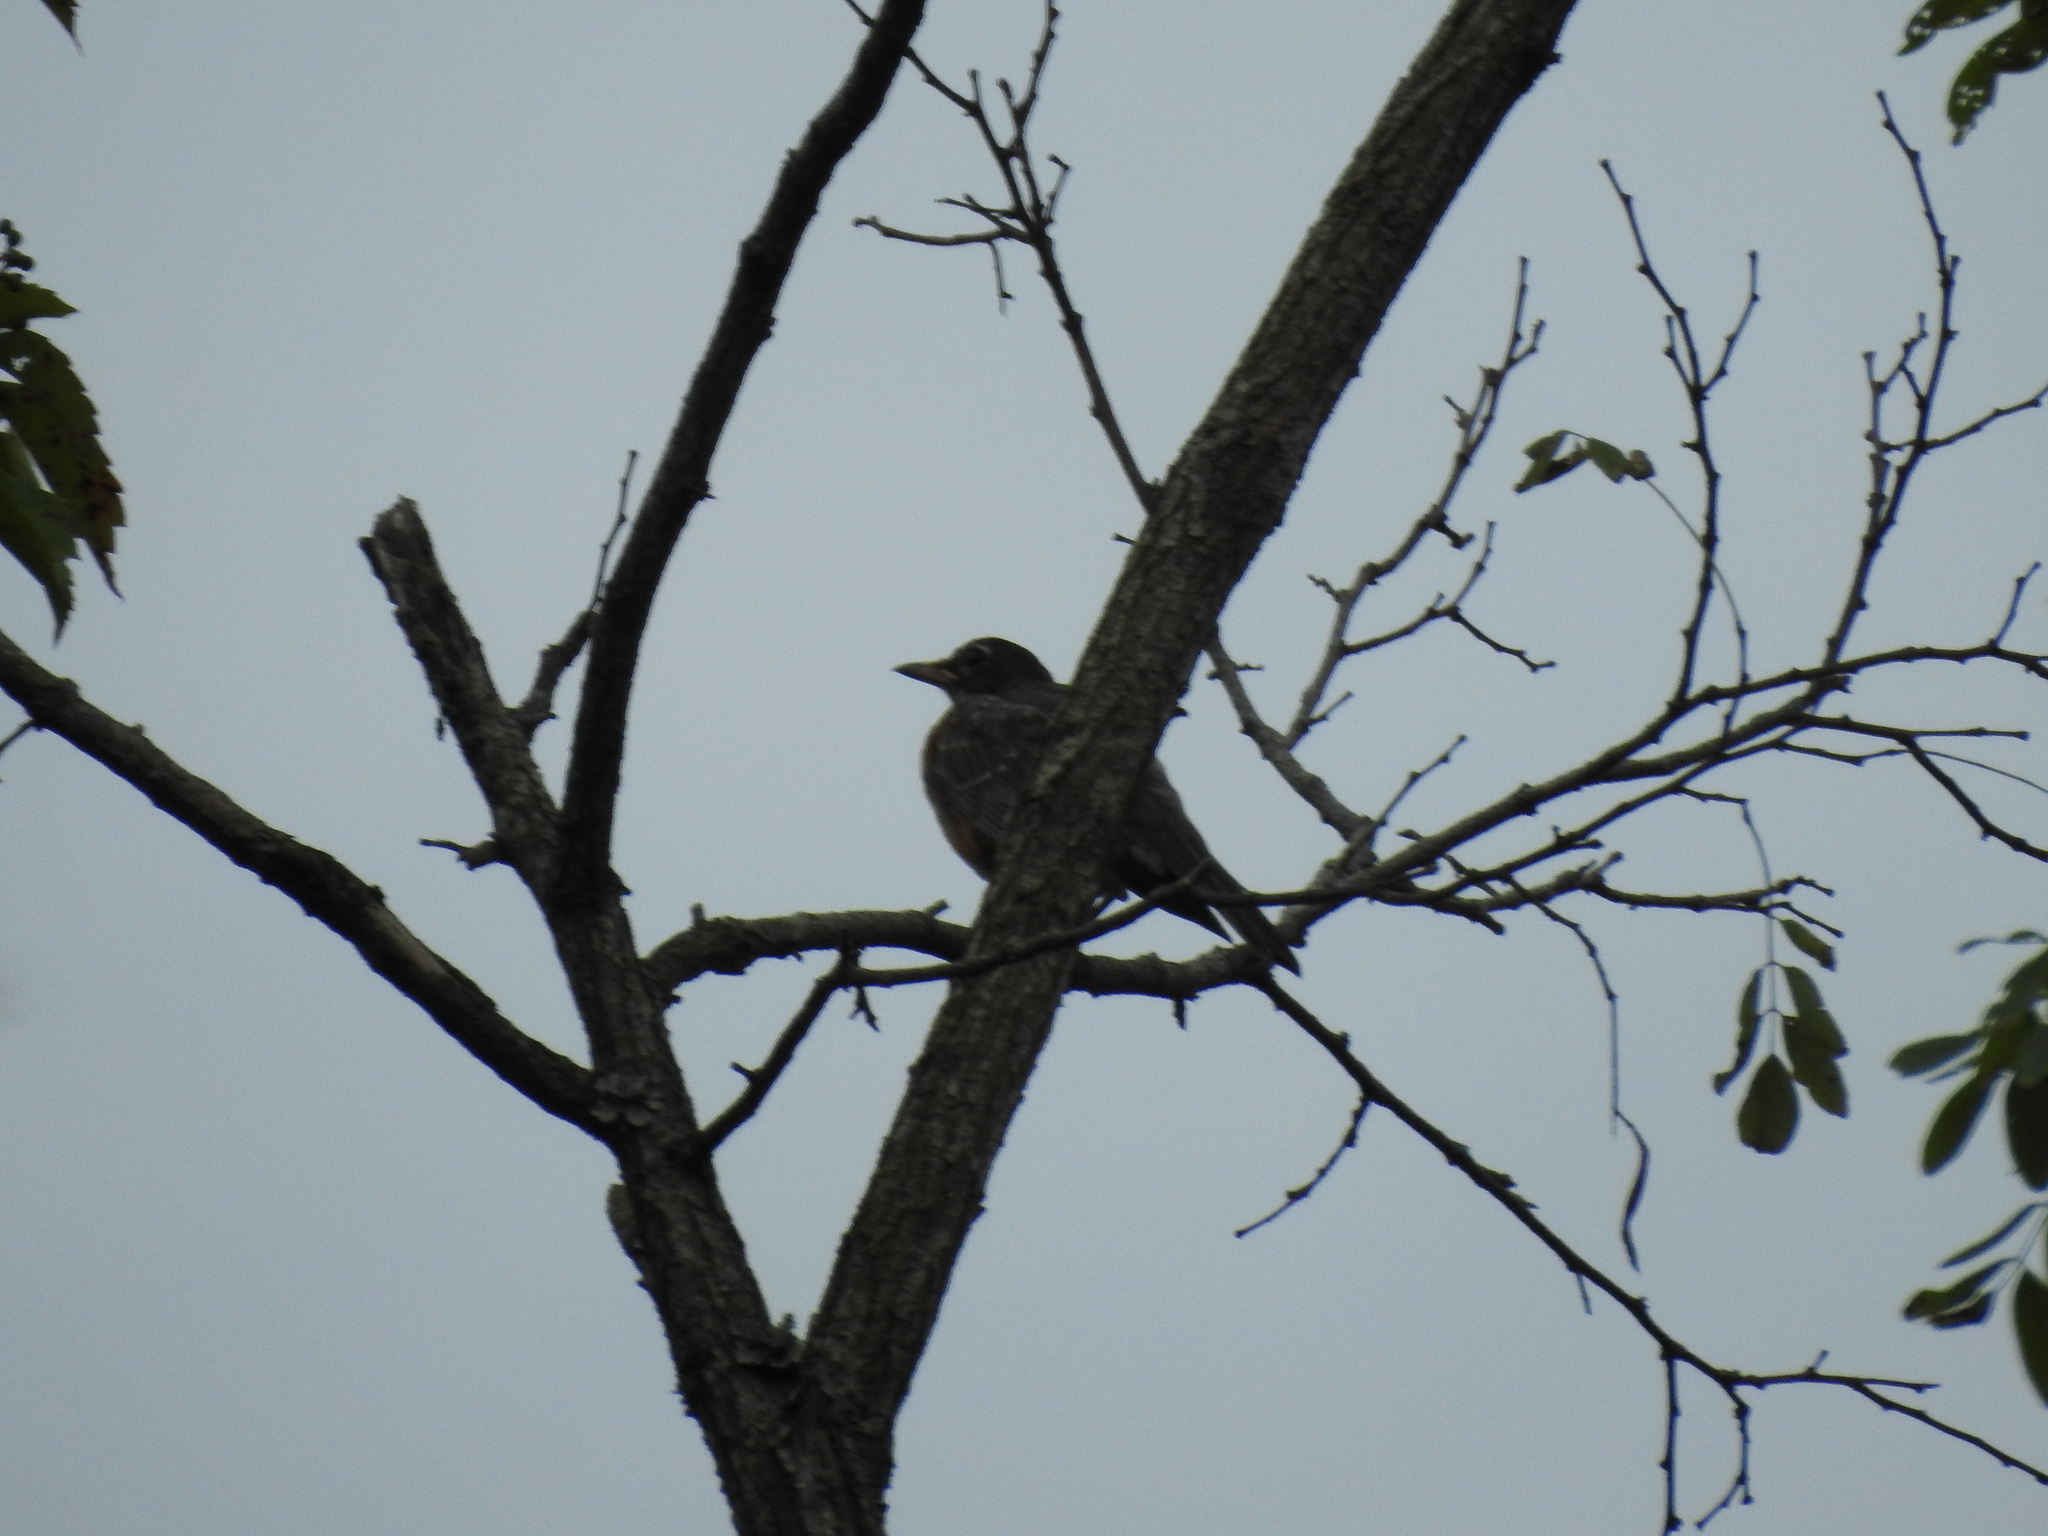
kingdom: Animalia
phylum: Chordata
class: Aves
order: Passeriformes
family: Turdidae
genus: Turdus
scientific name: Turdus migratorius
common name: American robin
